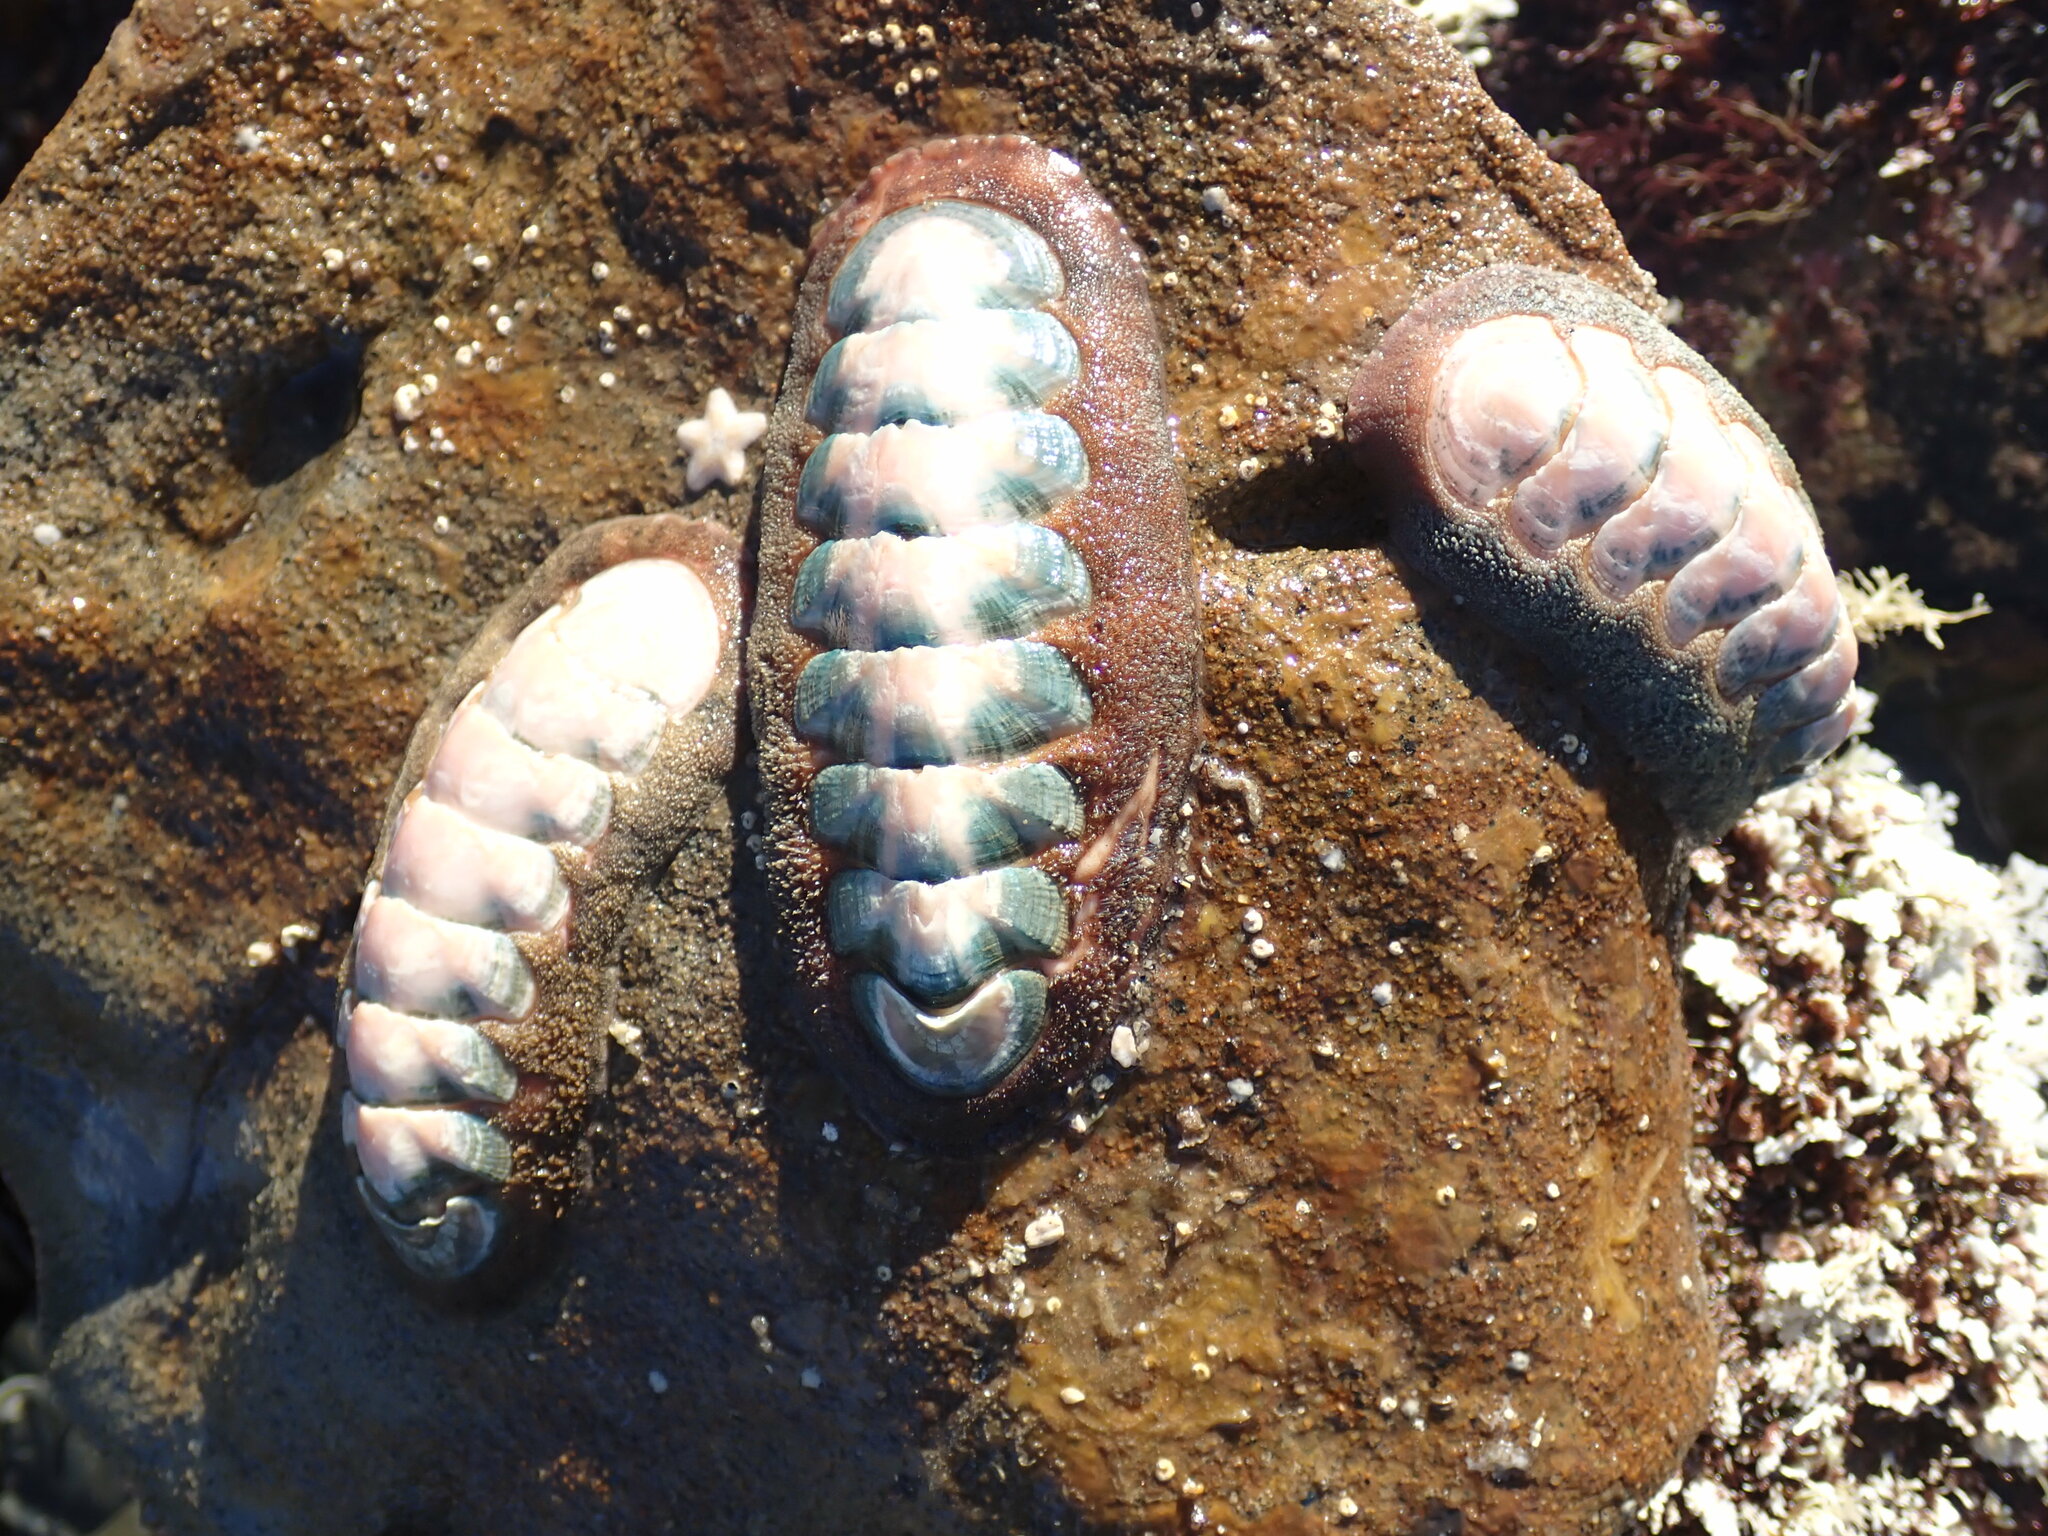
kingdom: Animalia
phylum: Mollusca
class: Polyplacophora
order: Chitonida
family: Ischnochitonidae
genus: Stenoplax
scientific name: Stenoplax conspicua
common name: Conspicuous chiton
